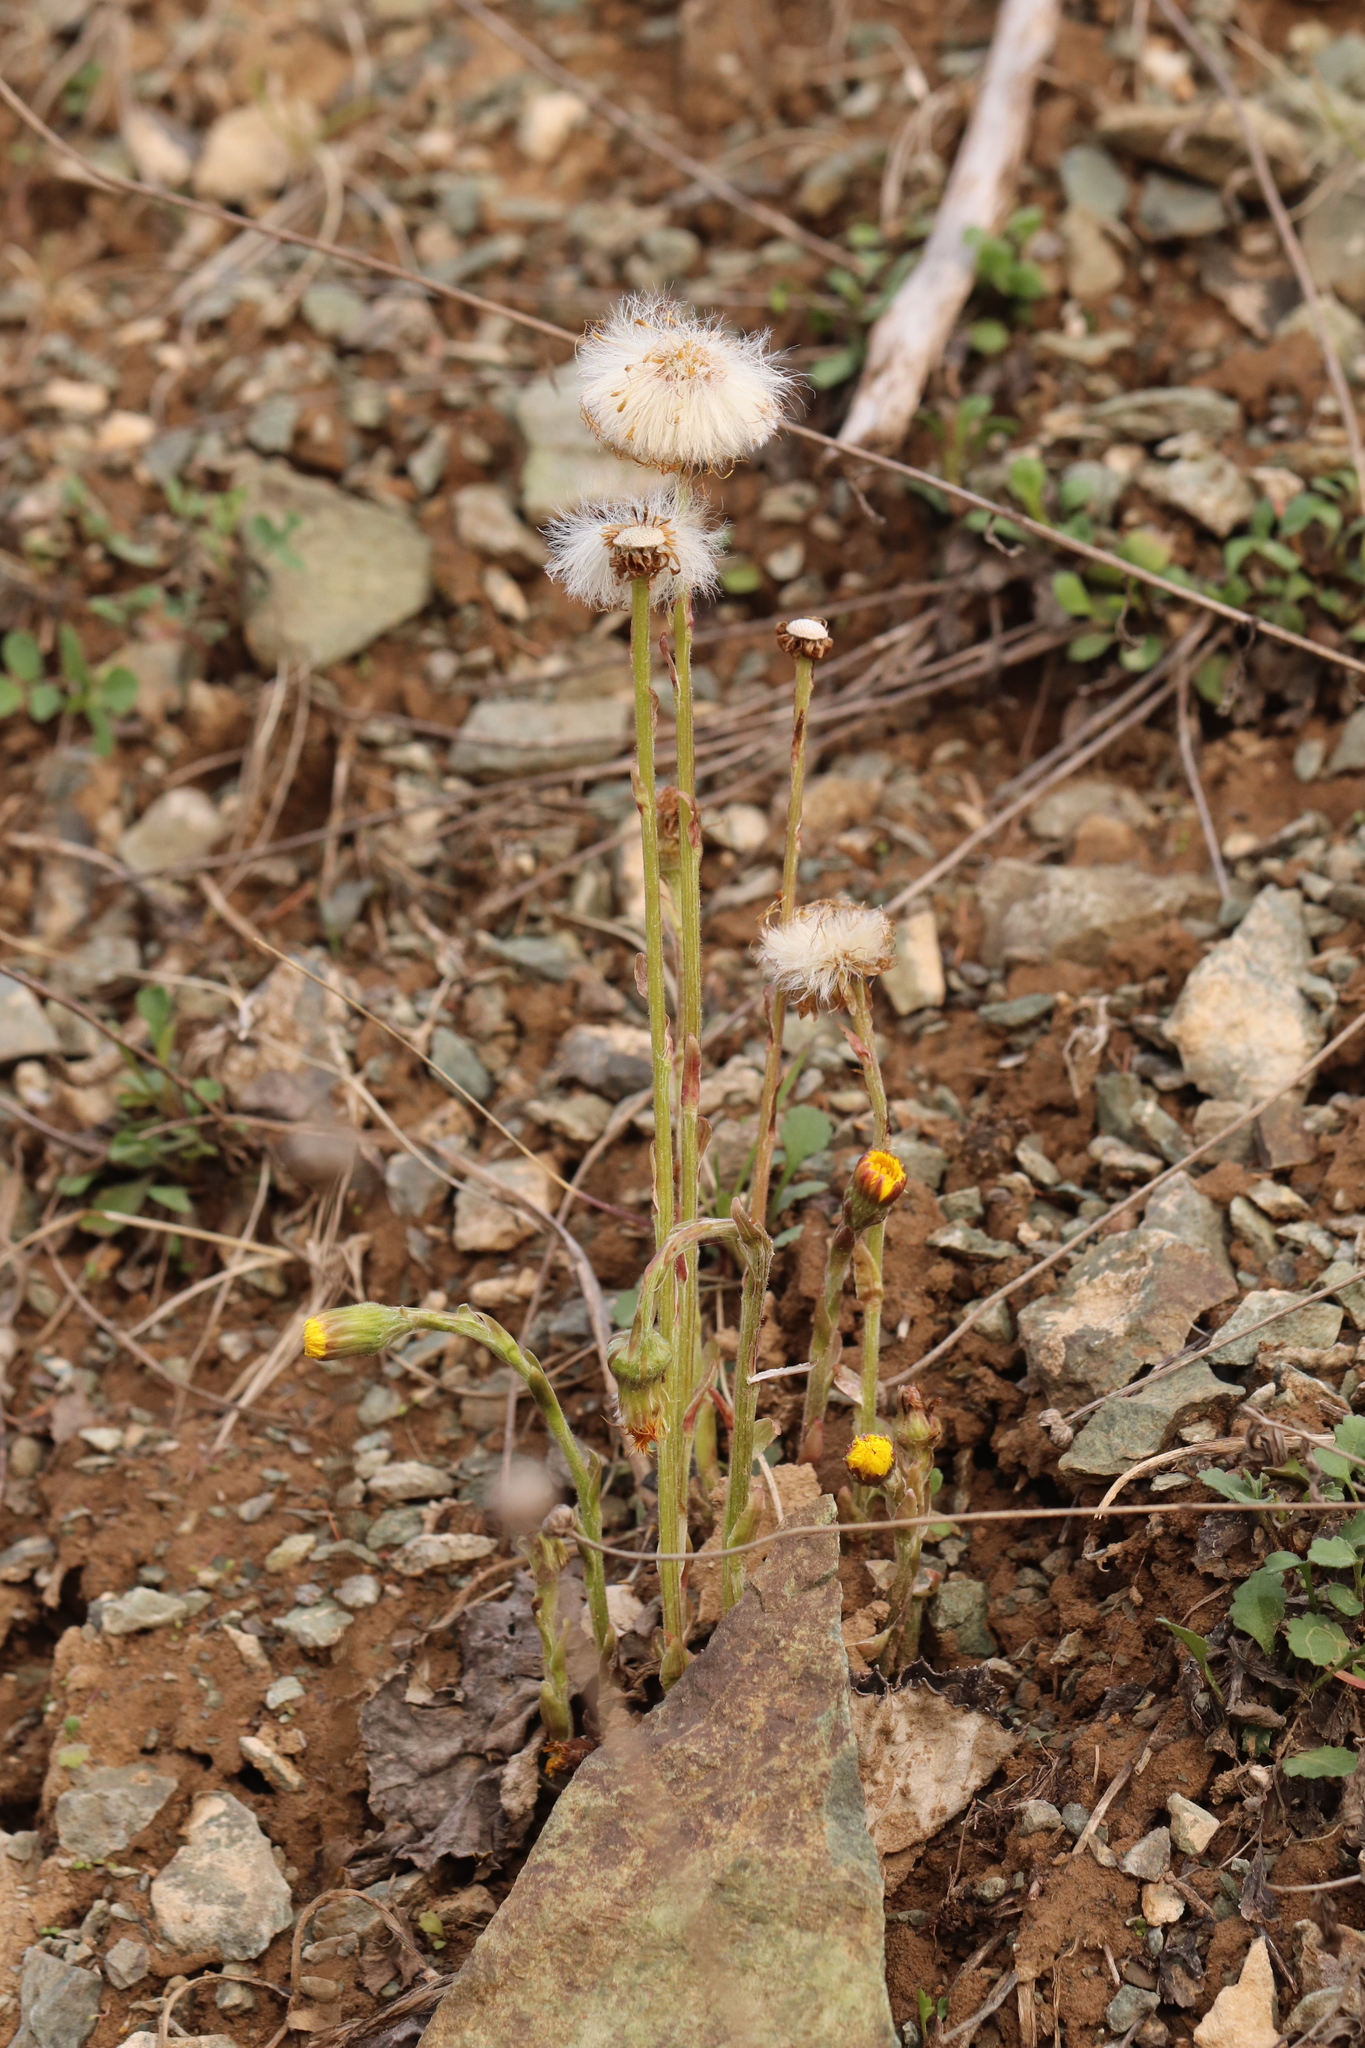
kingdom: Plantae
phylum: Tracheophyta
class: Magnoliopsida
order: Asterales
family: Asteraceae
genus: Tussilago
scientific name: Tussilago farfara
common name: Coltsfoot
